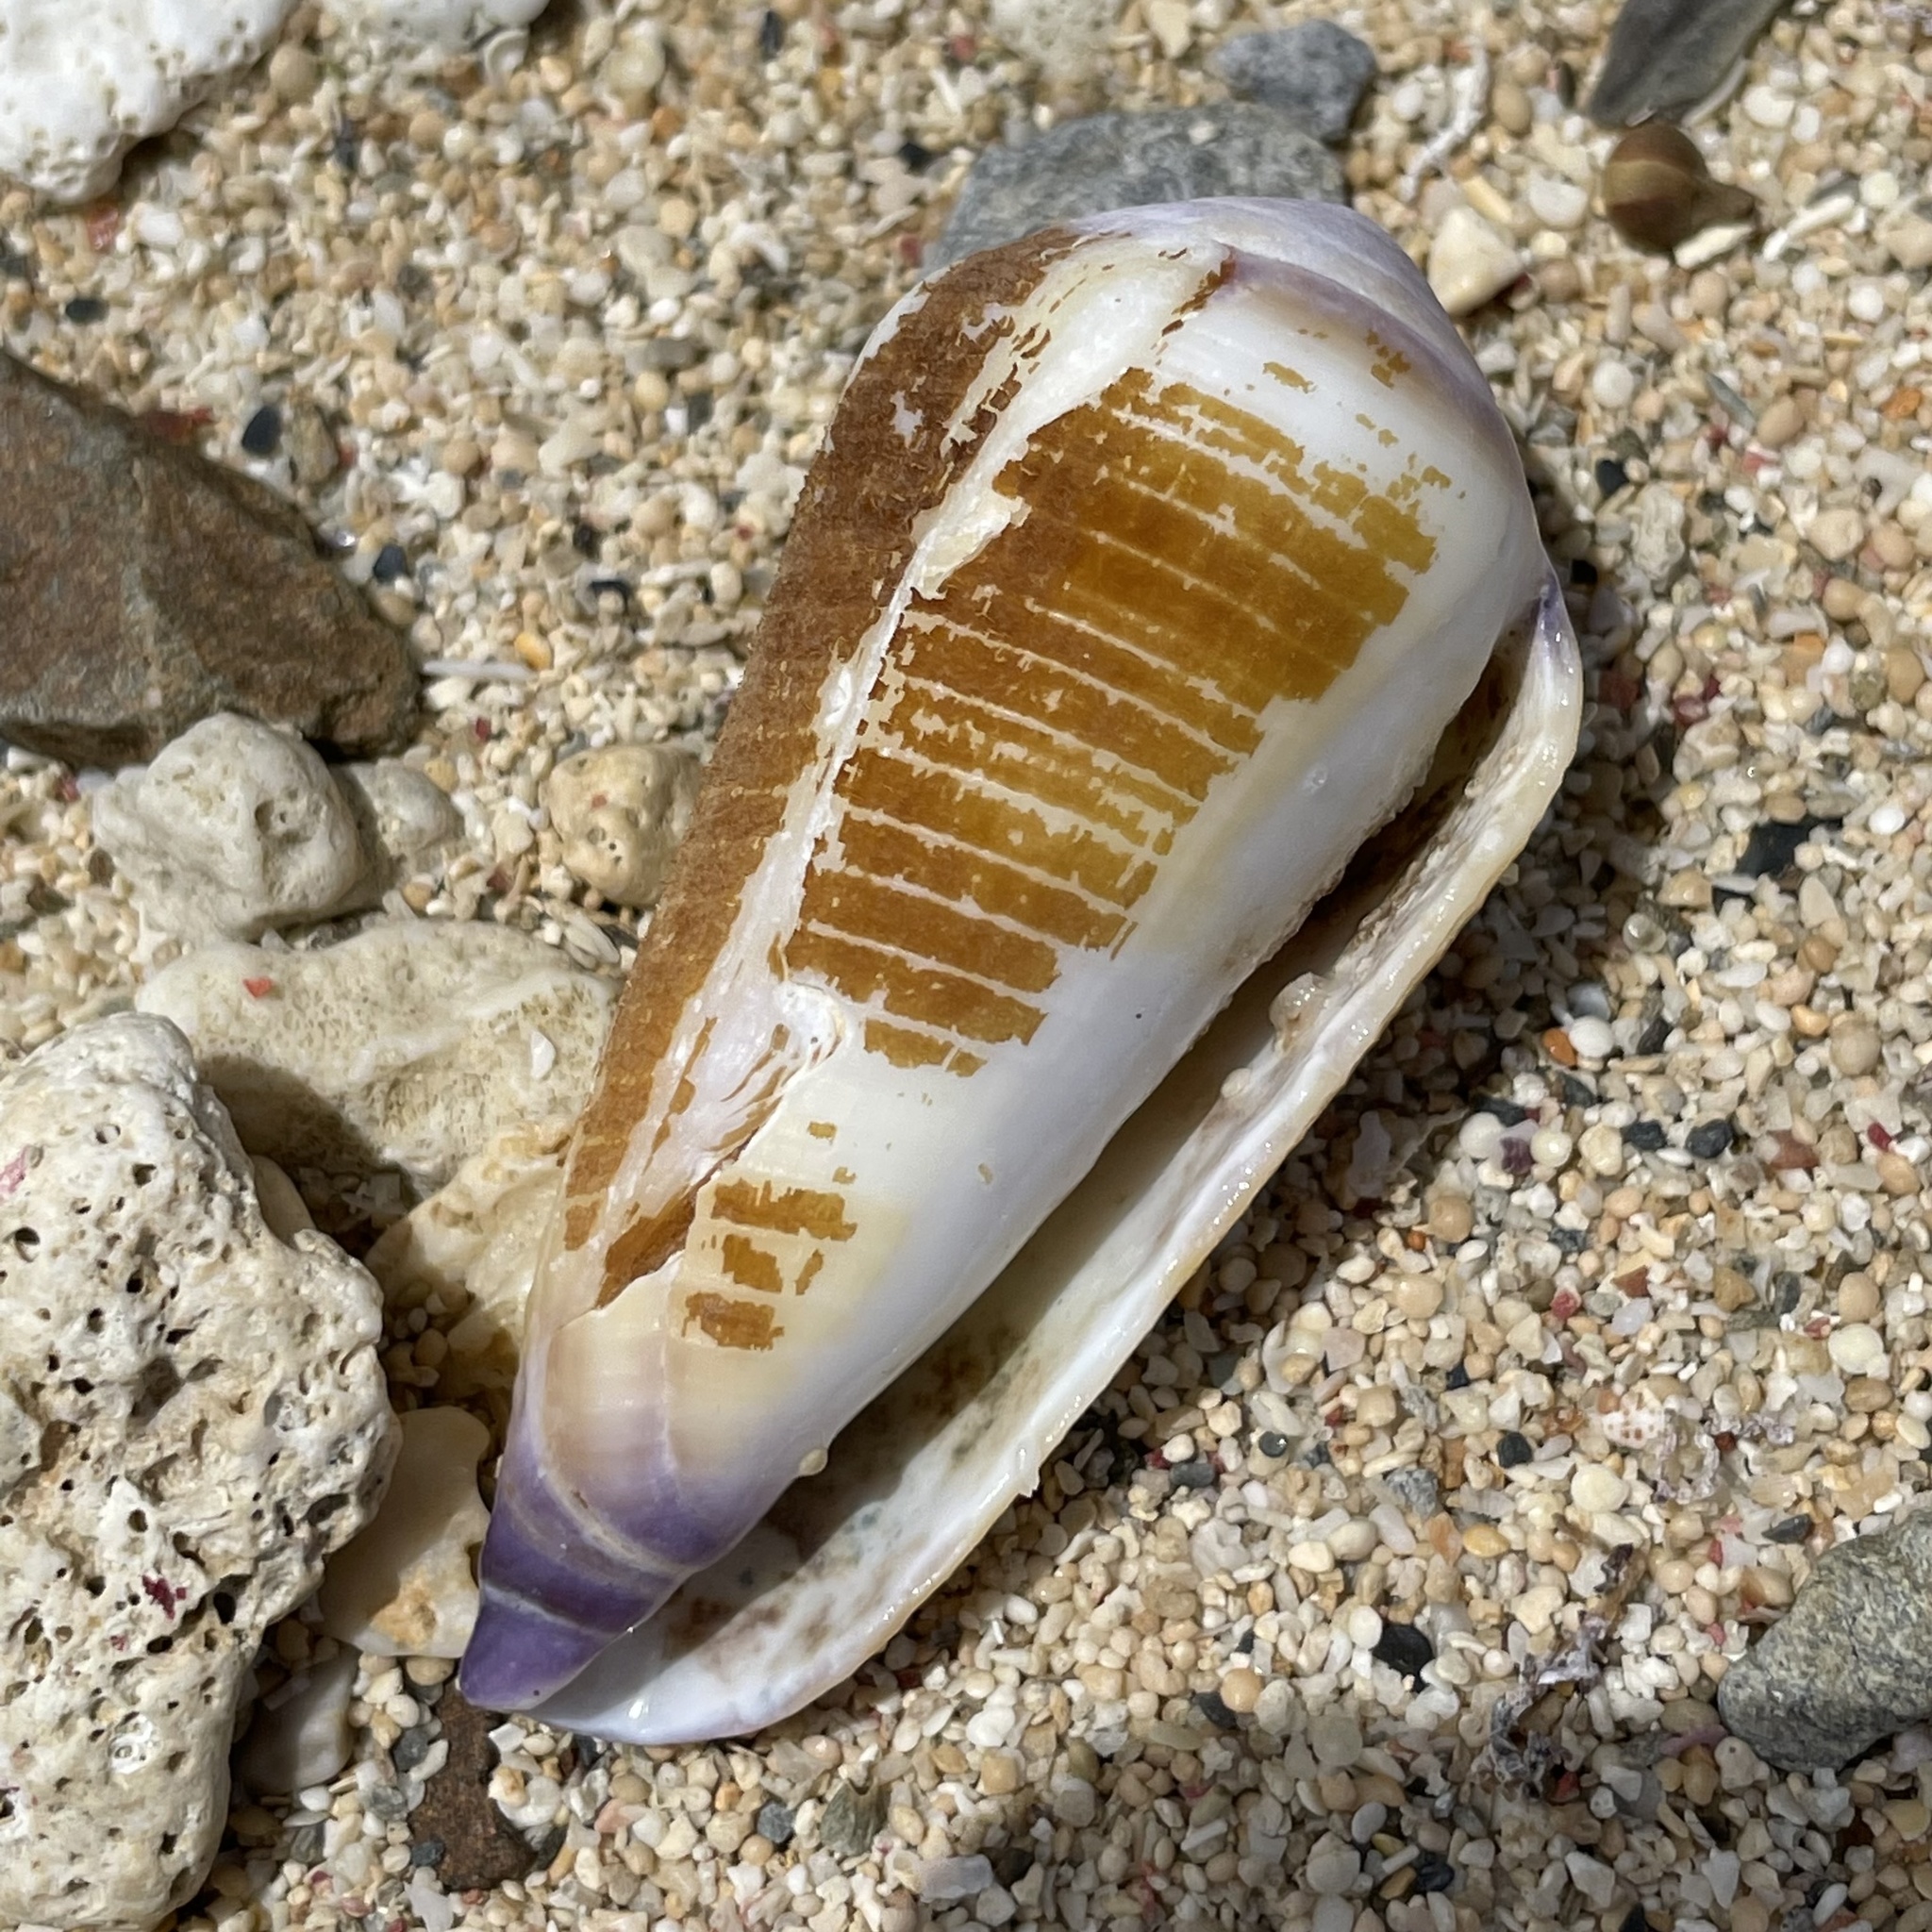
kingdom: Animalia
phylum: Mollusca
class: Gastropoda
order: Neogastropoda
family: Conidae
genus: Conus
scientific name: Conus terebra
